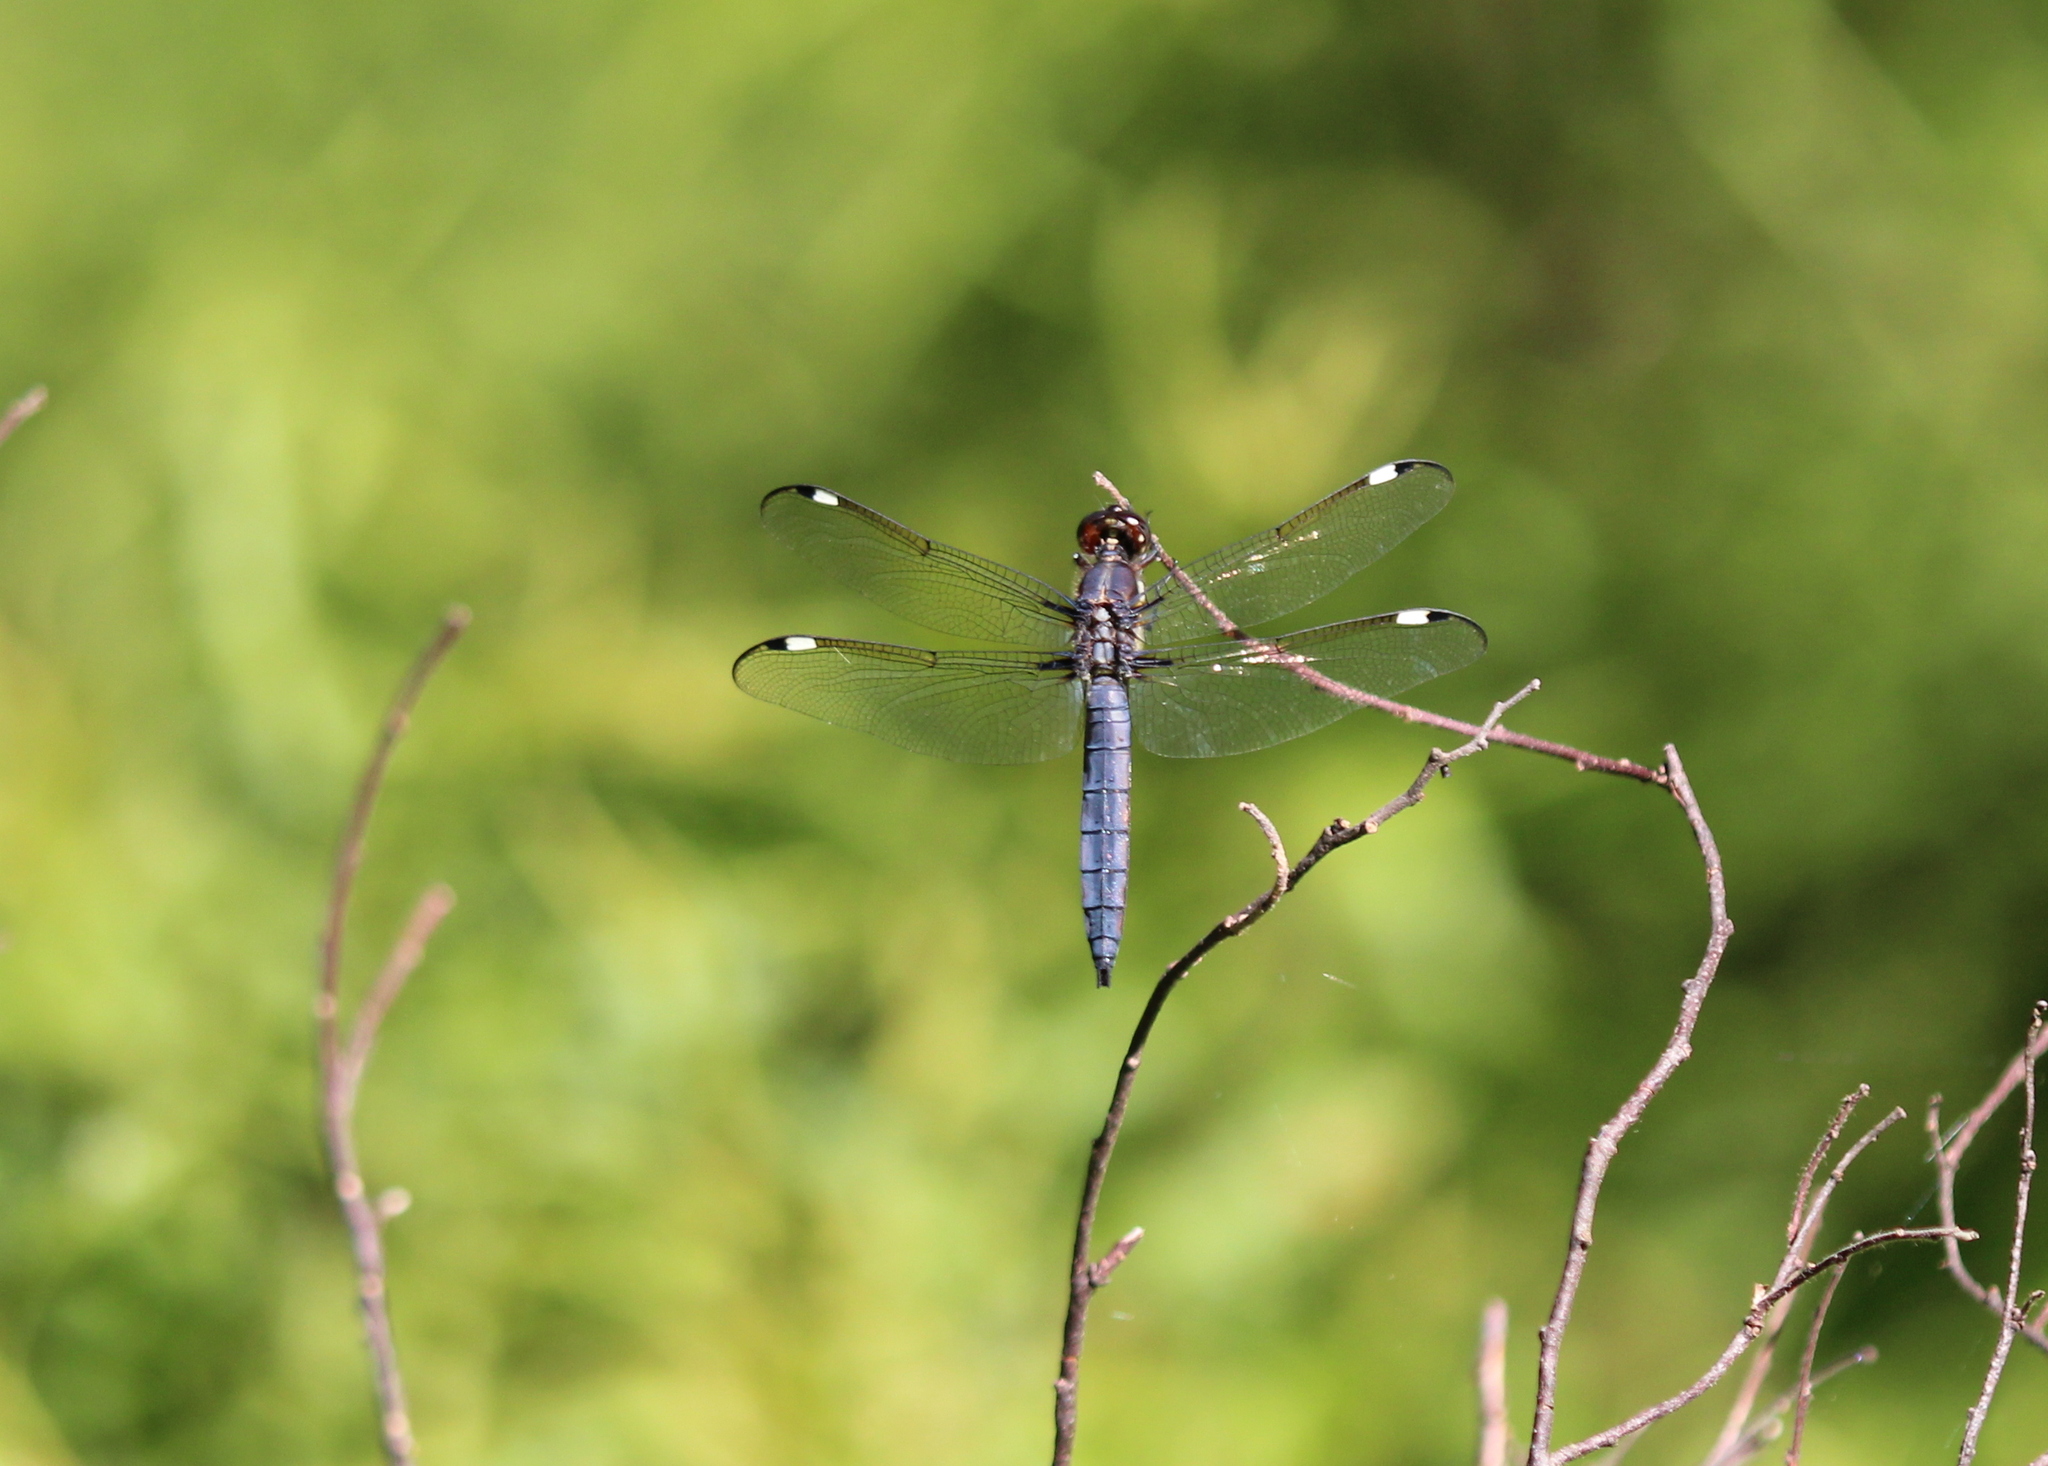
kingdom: Animalia
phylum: Arthropoda
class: Insecta
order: Odonata
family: Libellulidae
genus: Libellula
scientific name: Libellula cyanea
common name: Spangled skimmer
